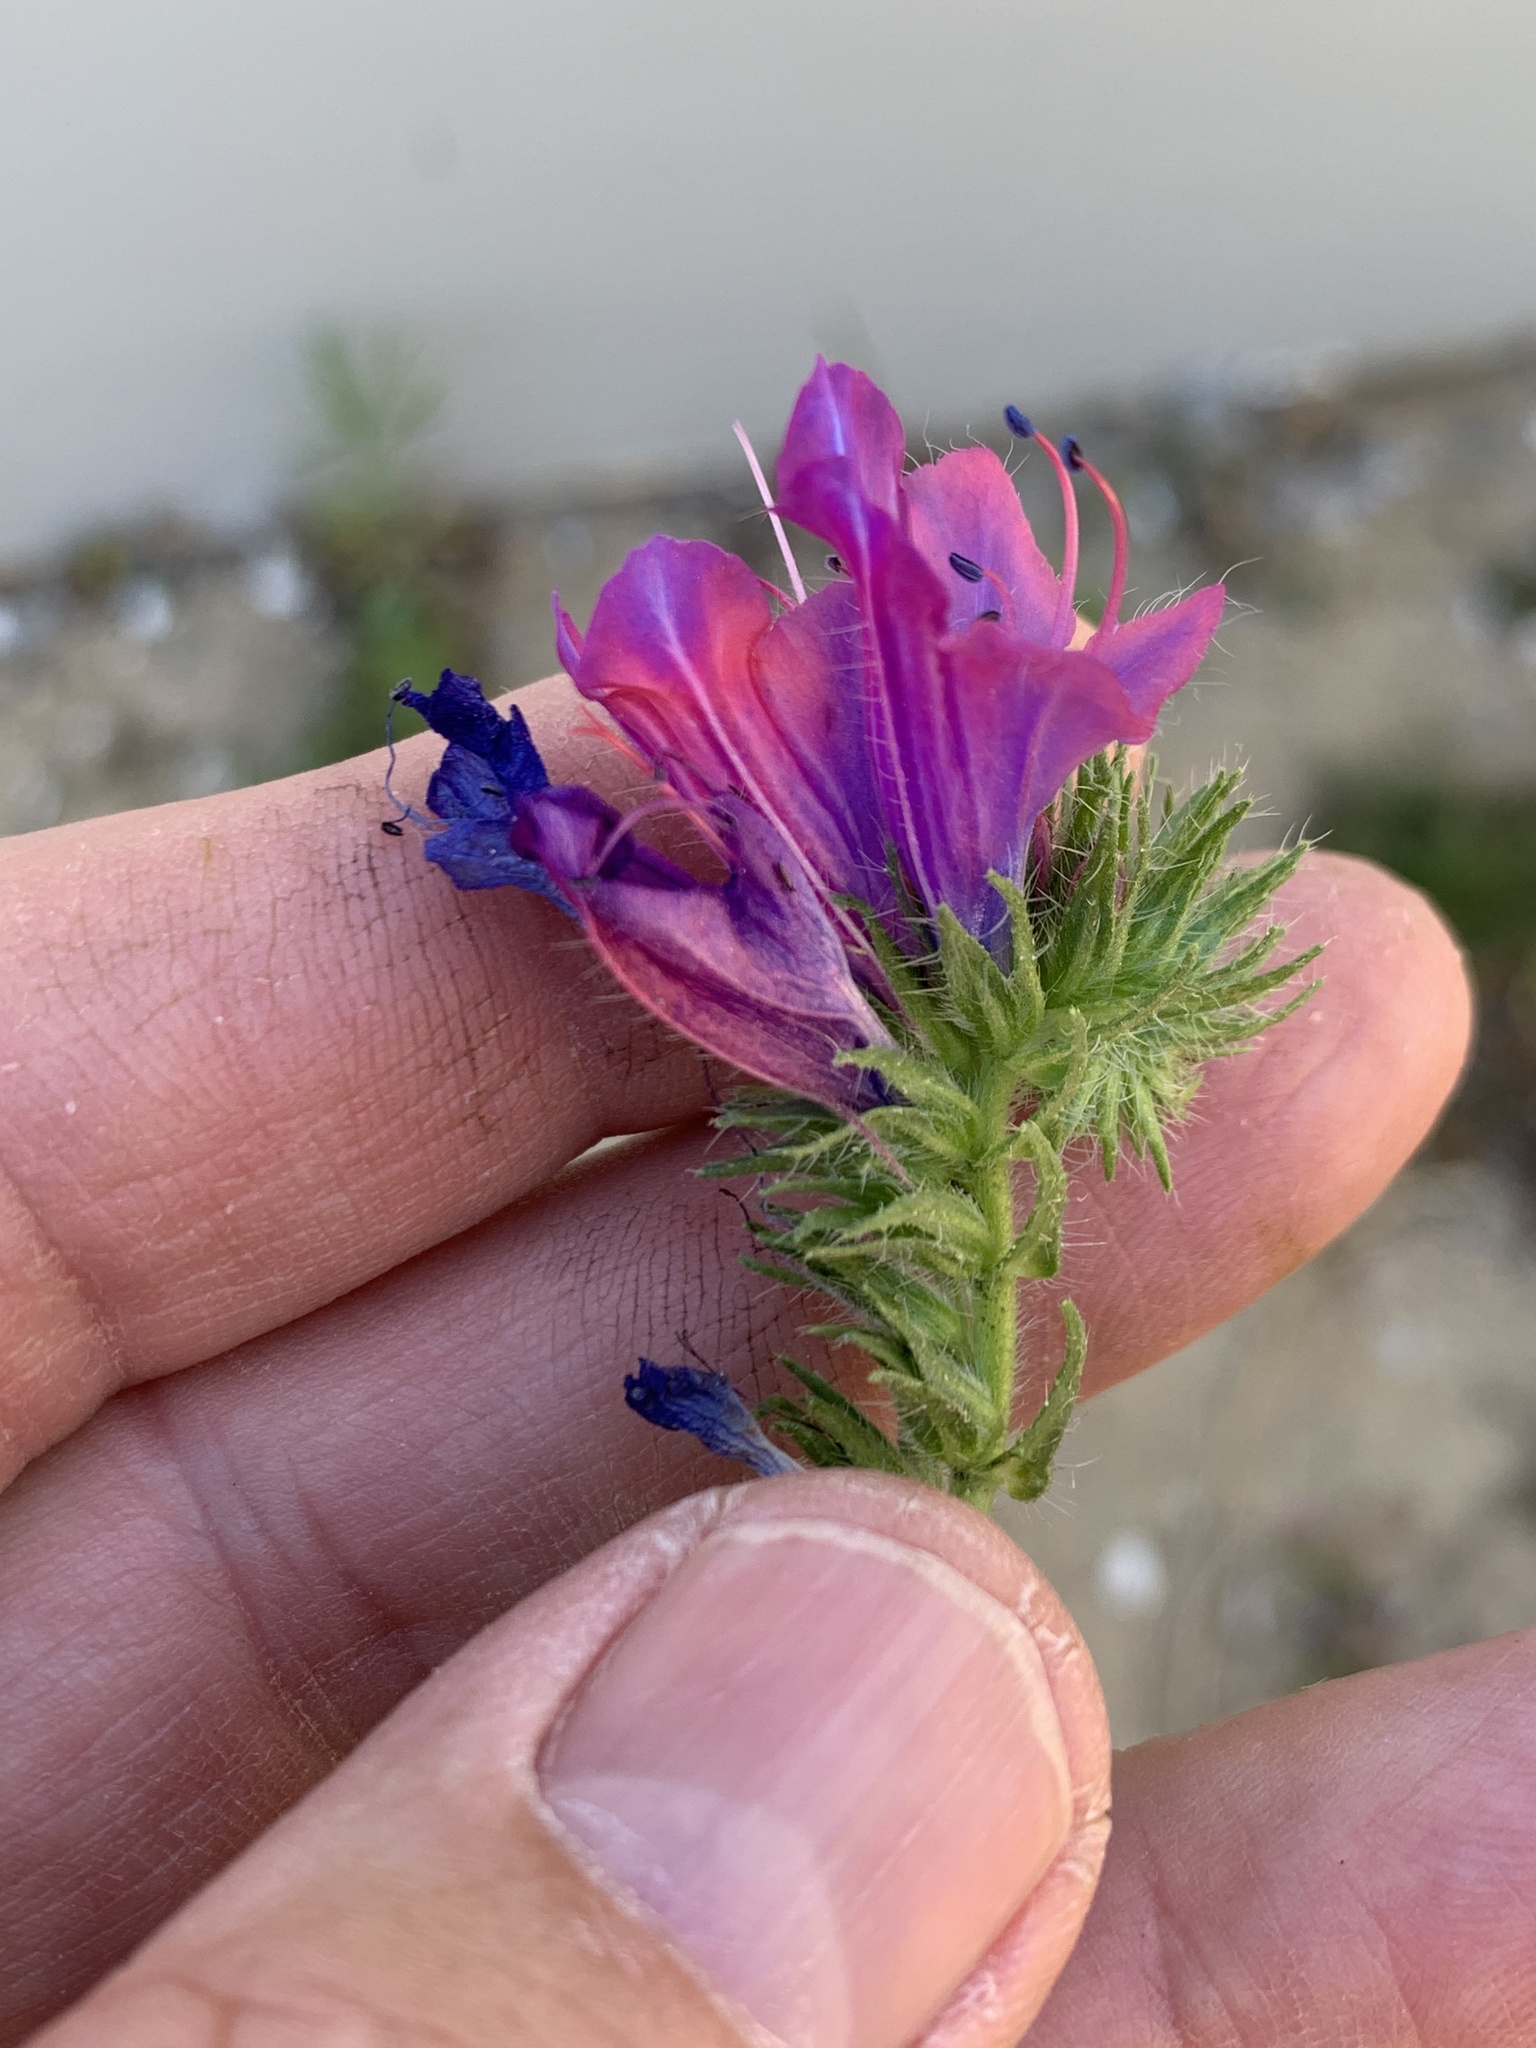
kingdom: Plantae
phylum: Tracheophyta
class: Magnoliopsida
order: Boraginales
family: Boraginaceae
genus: Echium
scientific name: Echium plantagineum
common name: Purple viper's-bugloss
